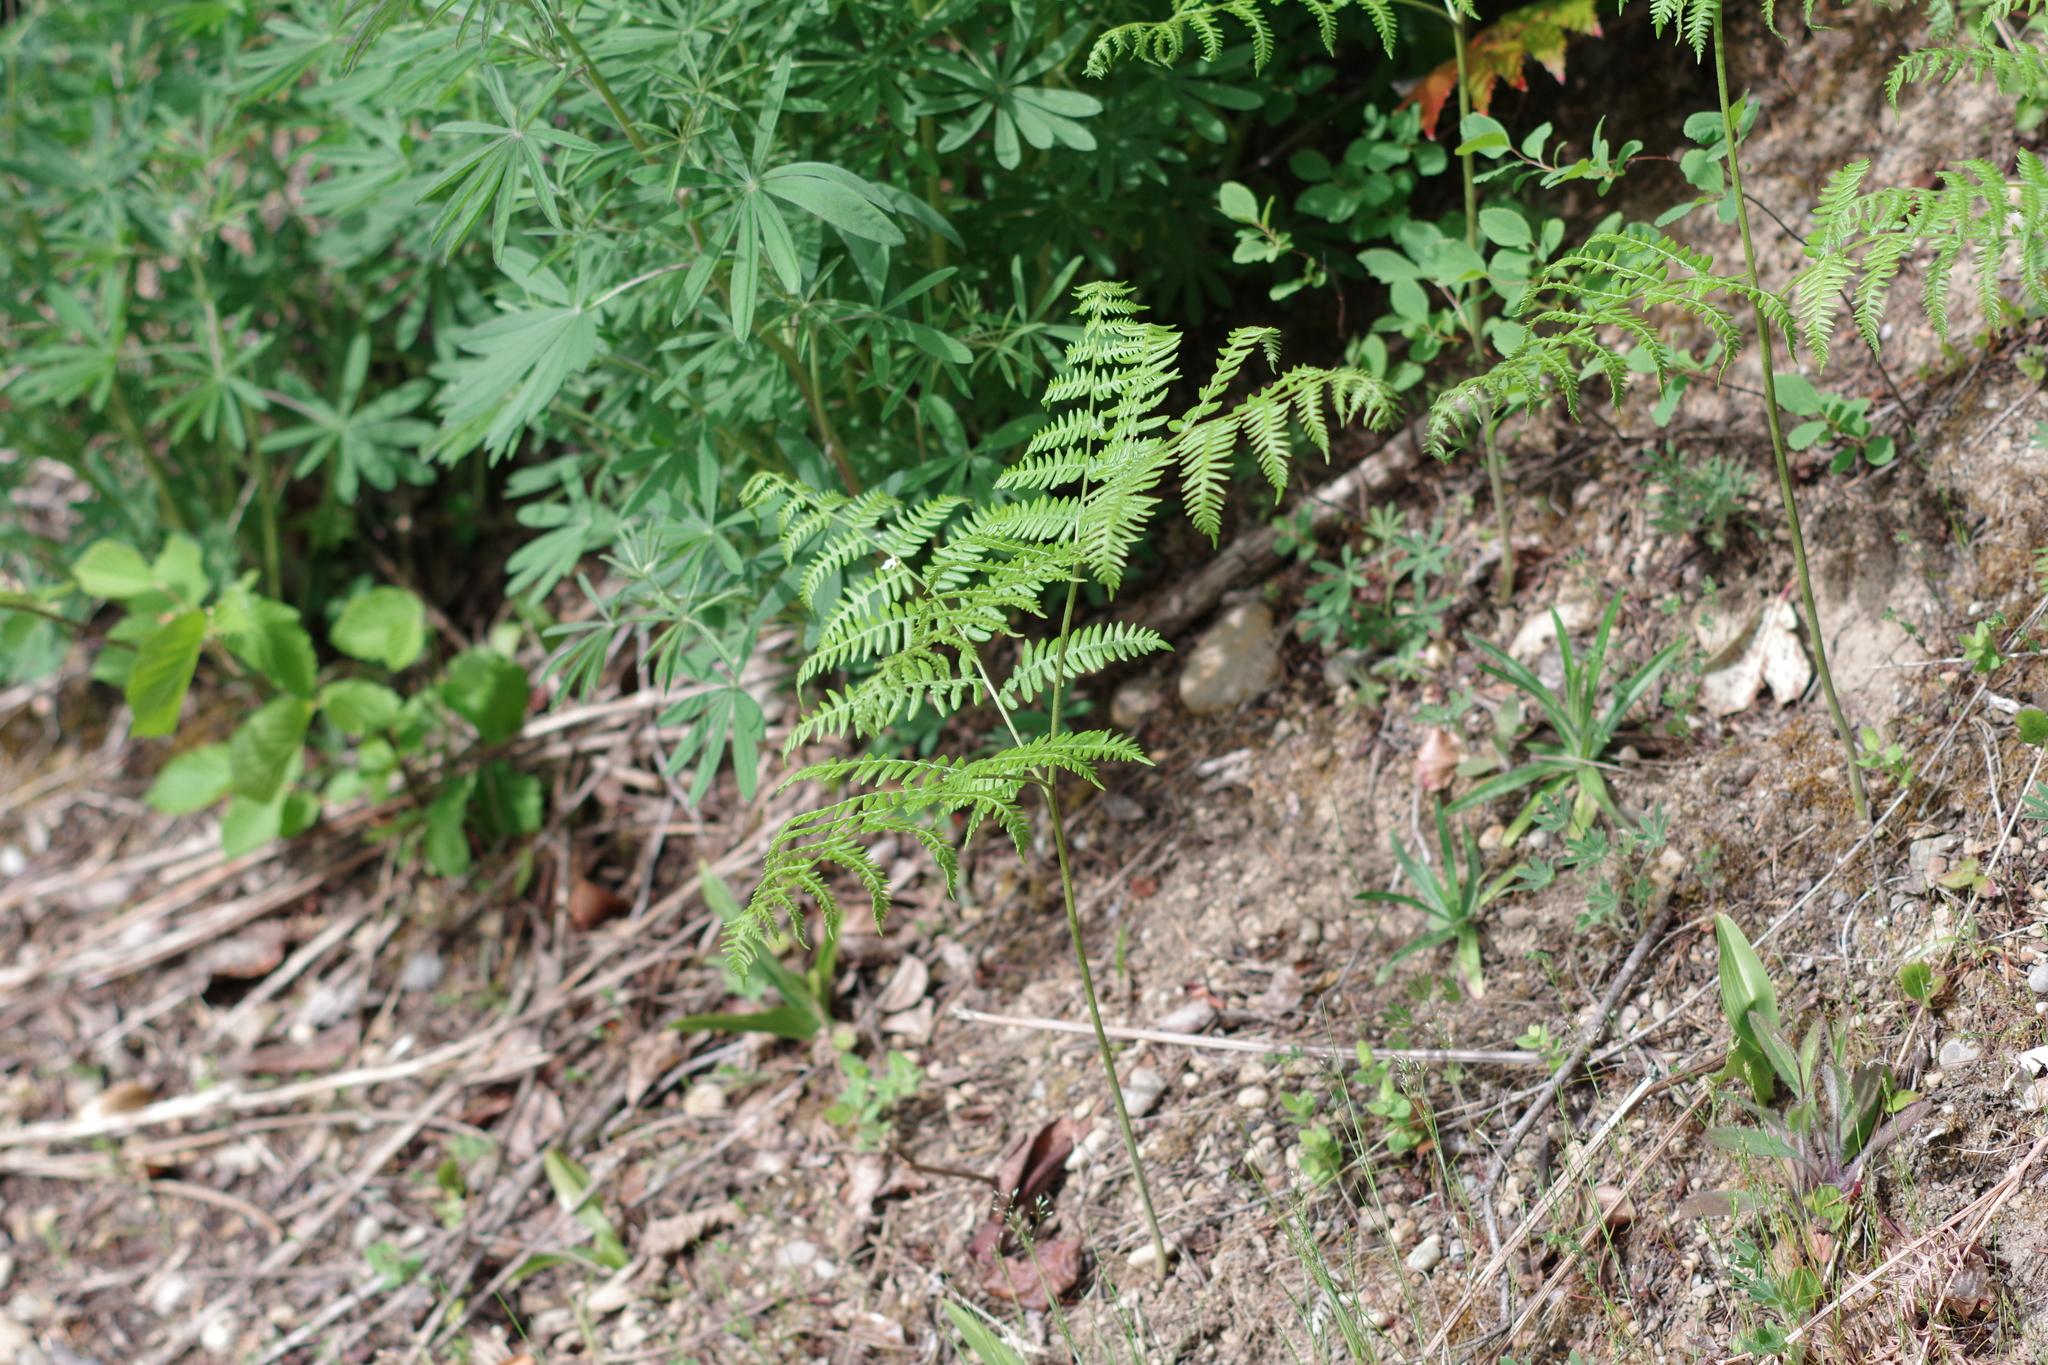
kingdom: Plantae
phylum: Tracheophyta
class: Polypodiopsida
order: Polypodiales
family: Dennstaedtiaceae
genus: Pteridium
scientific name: Pteridium aquilinum
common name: Bracken
